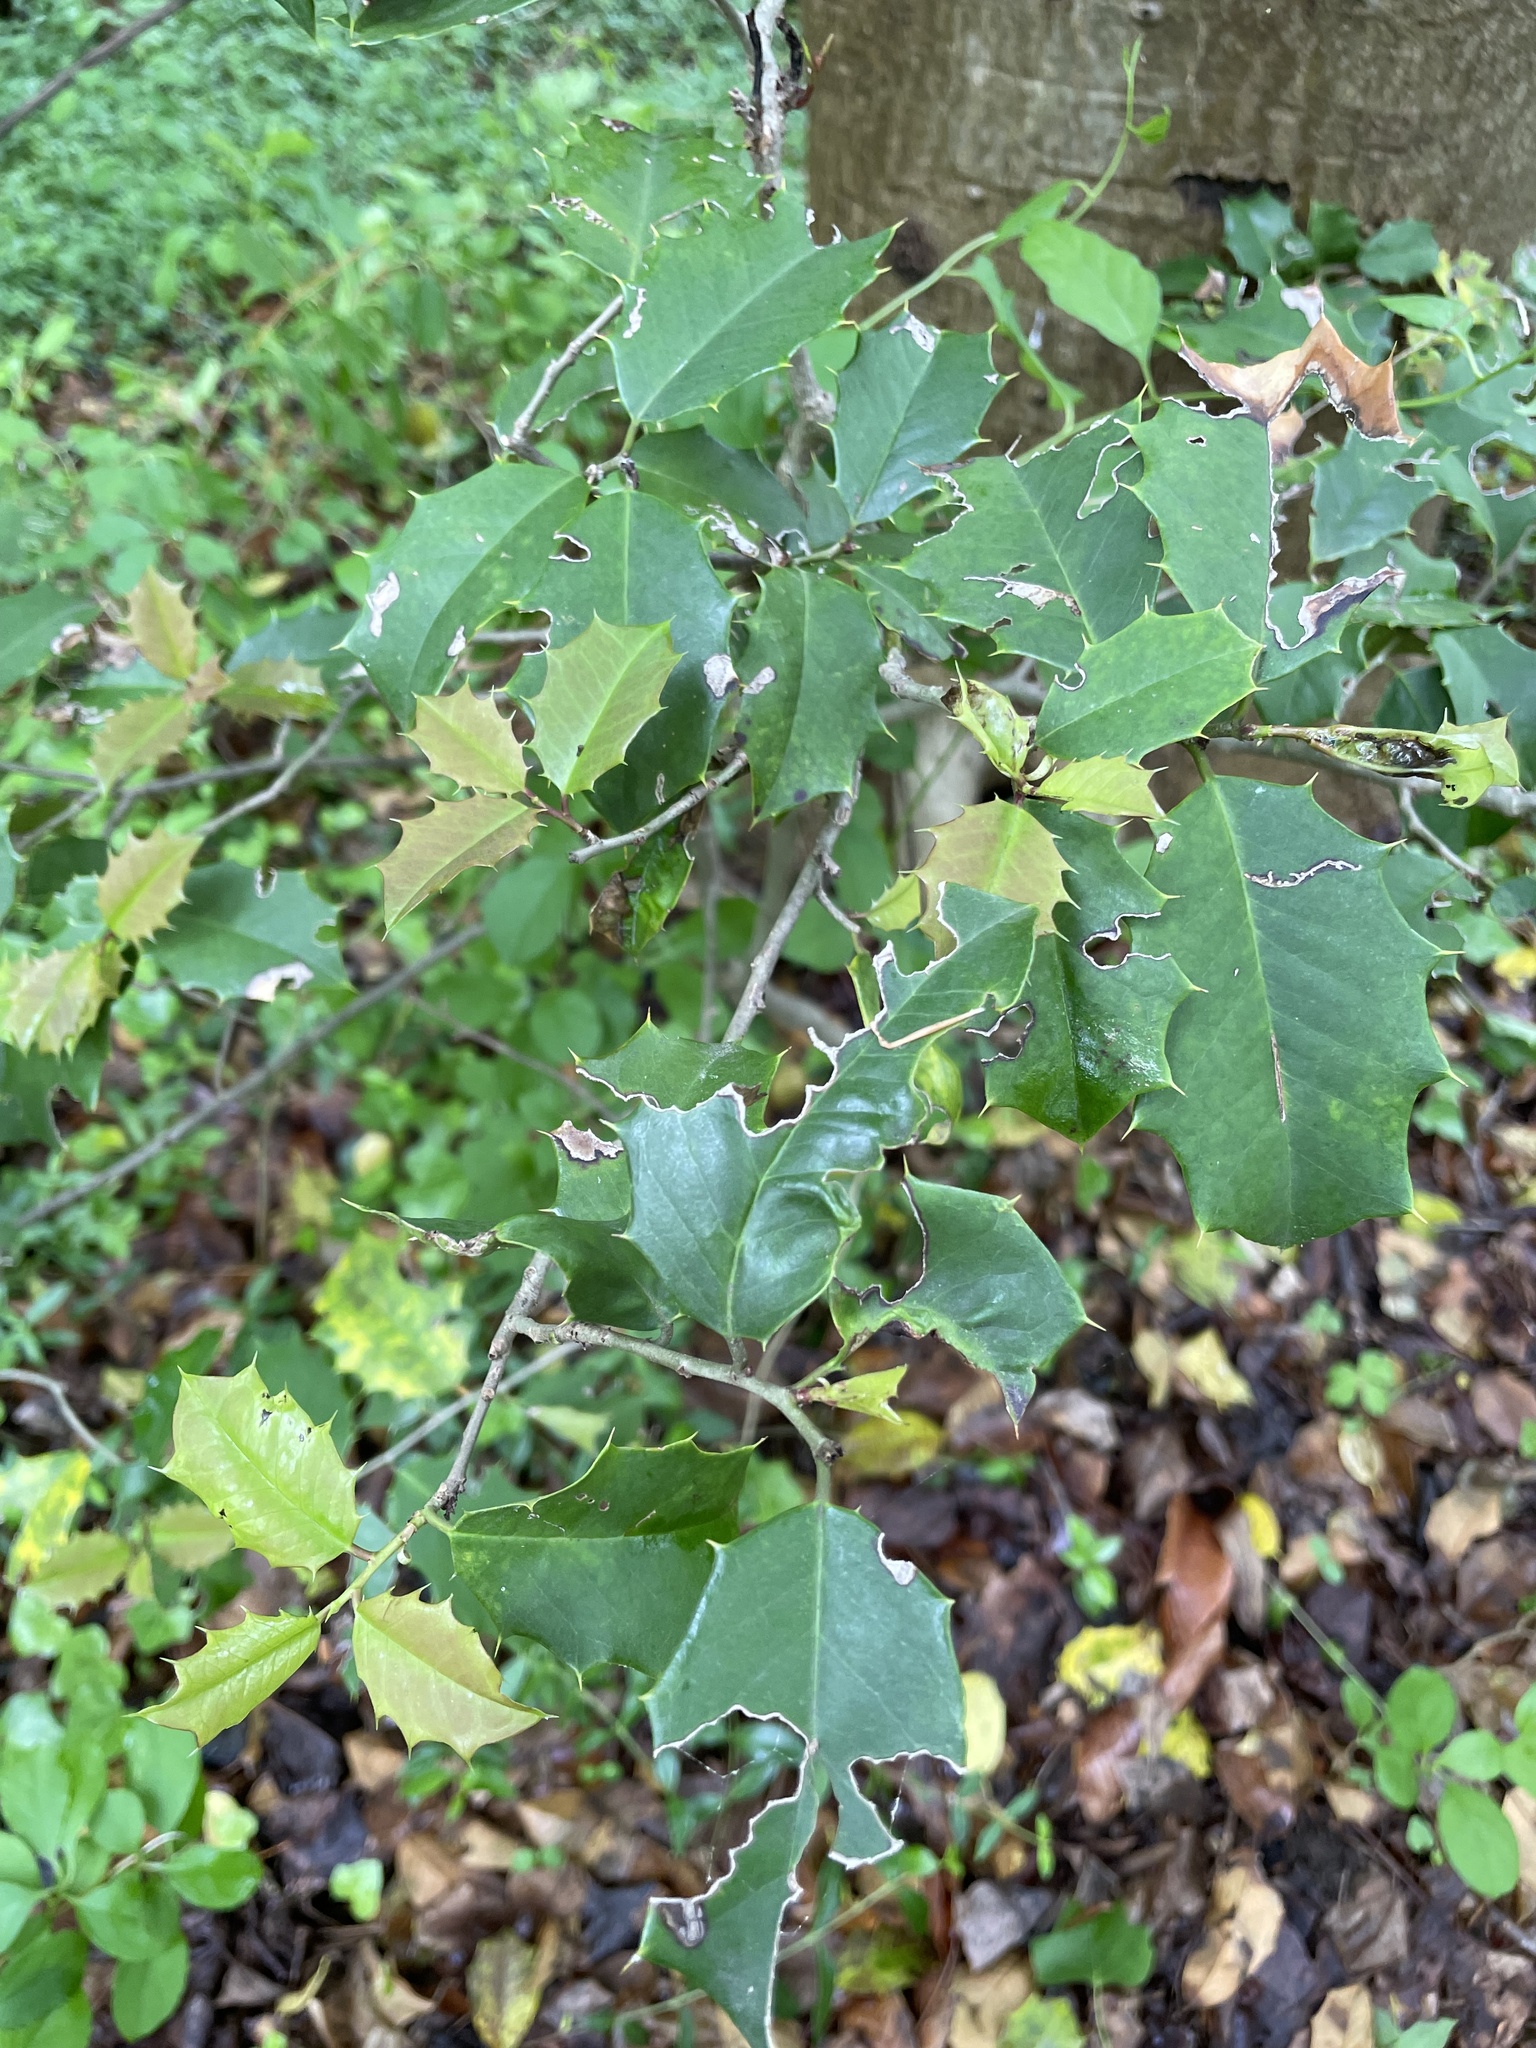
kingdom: Plantae
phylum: Tracheophyta
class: Magnoliopsida
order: Aquifoliales
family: Aquifoliaceae
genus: Ilex
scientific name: Ilex opaca
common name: American holly
